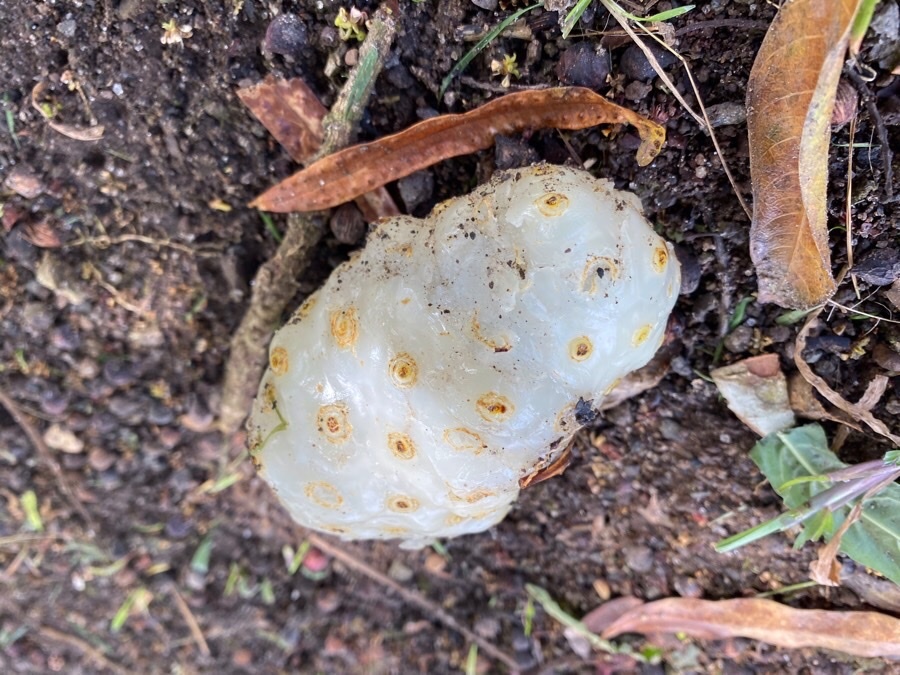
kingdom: Plantae
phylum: Tracheophyta
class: Magnoliopsida
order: Gentianales
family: Rubiaceae
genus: Morinda
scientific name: Morinda citrifolia
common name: Indian-mulberry
